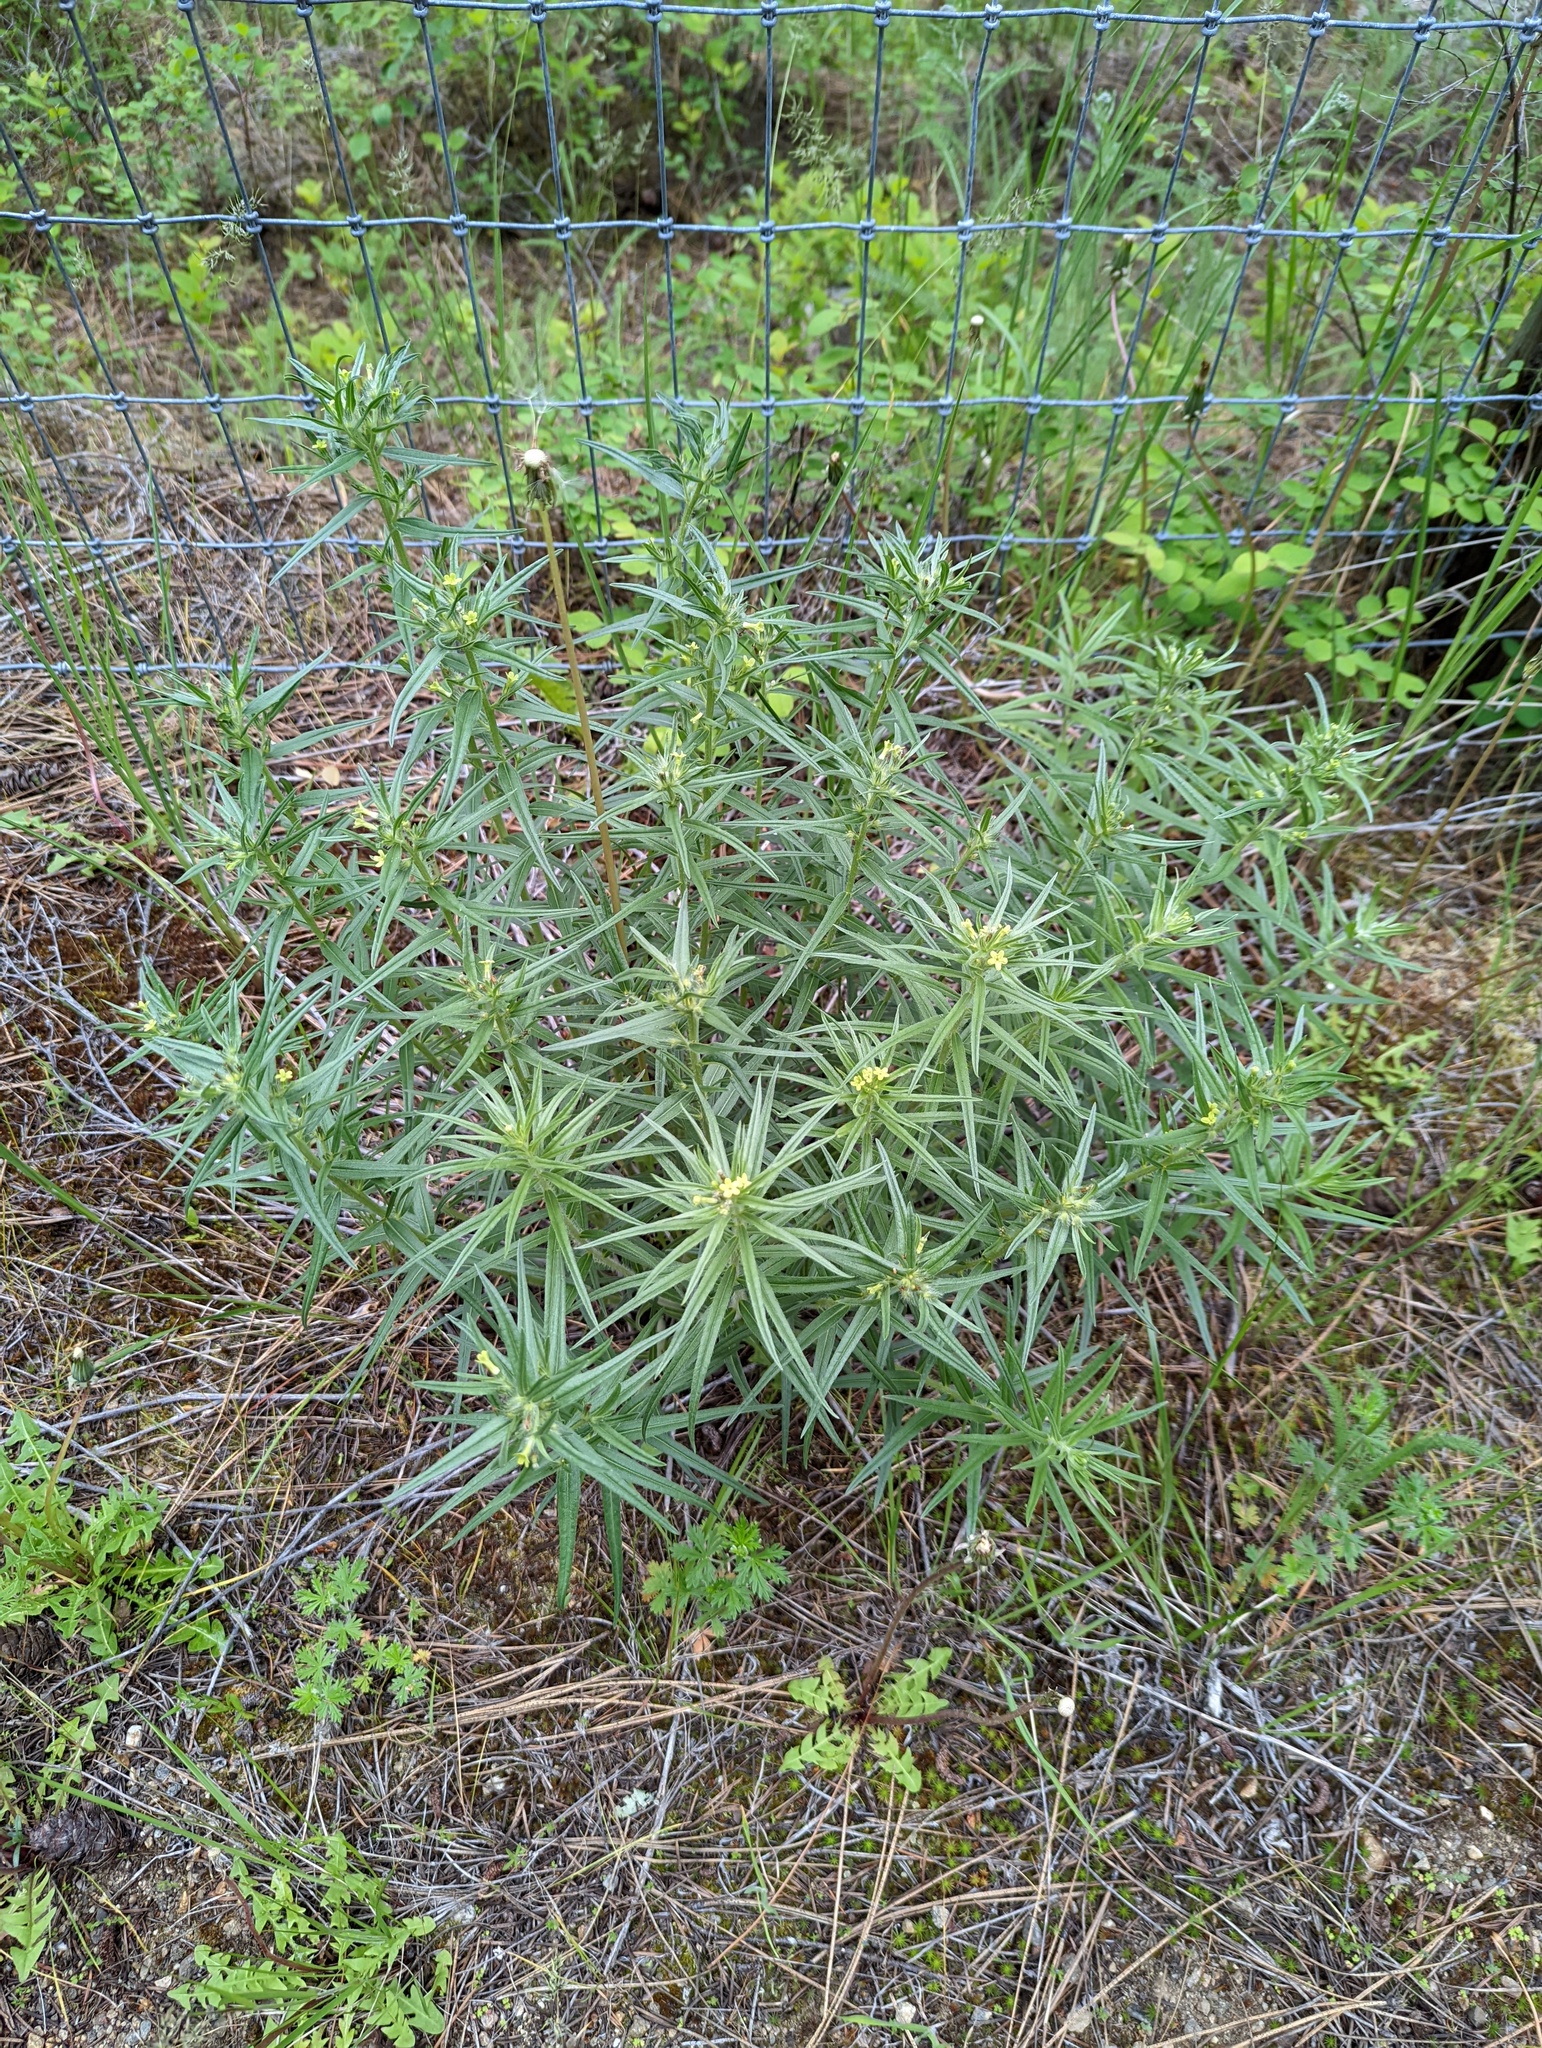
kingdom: Plantae
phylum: Tracheophyta
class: Magnoliopsida
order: Boraginales
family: Boraginaceae
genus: Lithospermum
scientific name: Lithospermum ruderale
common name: Western gromwell
